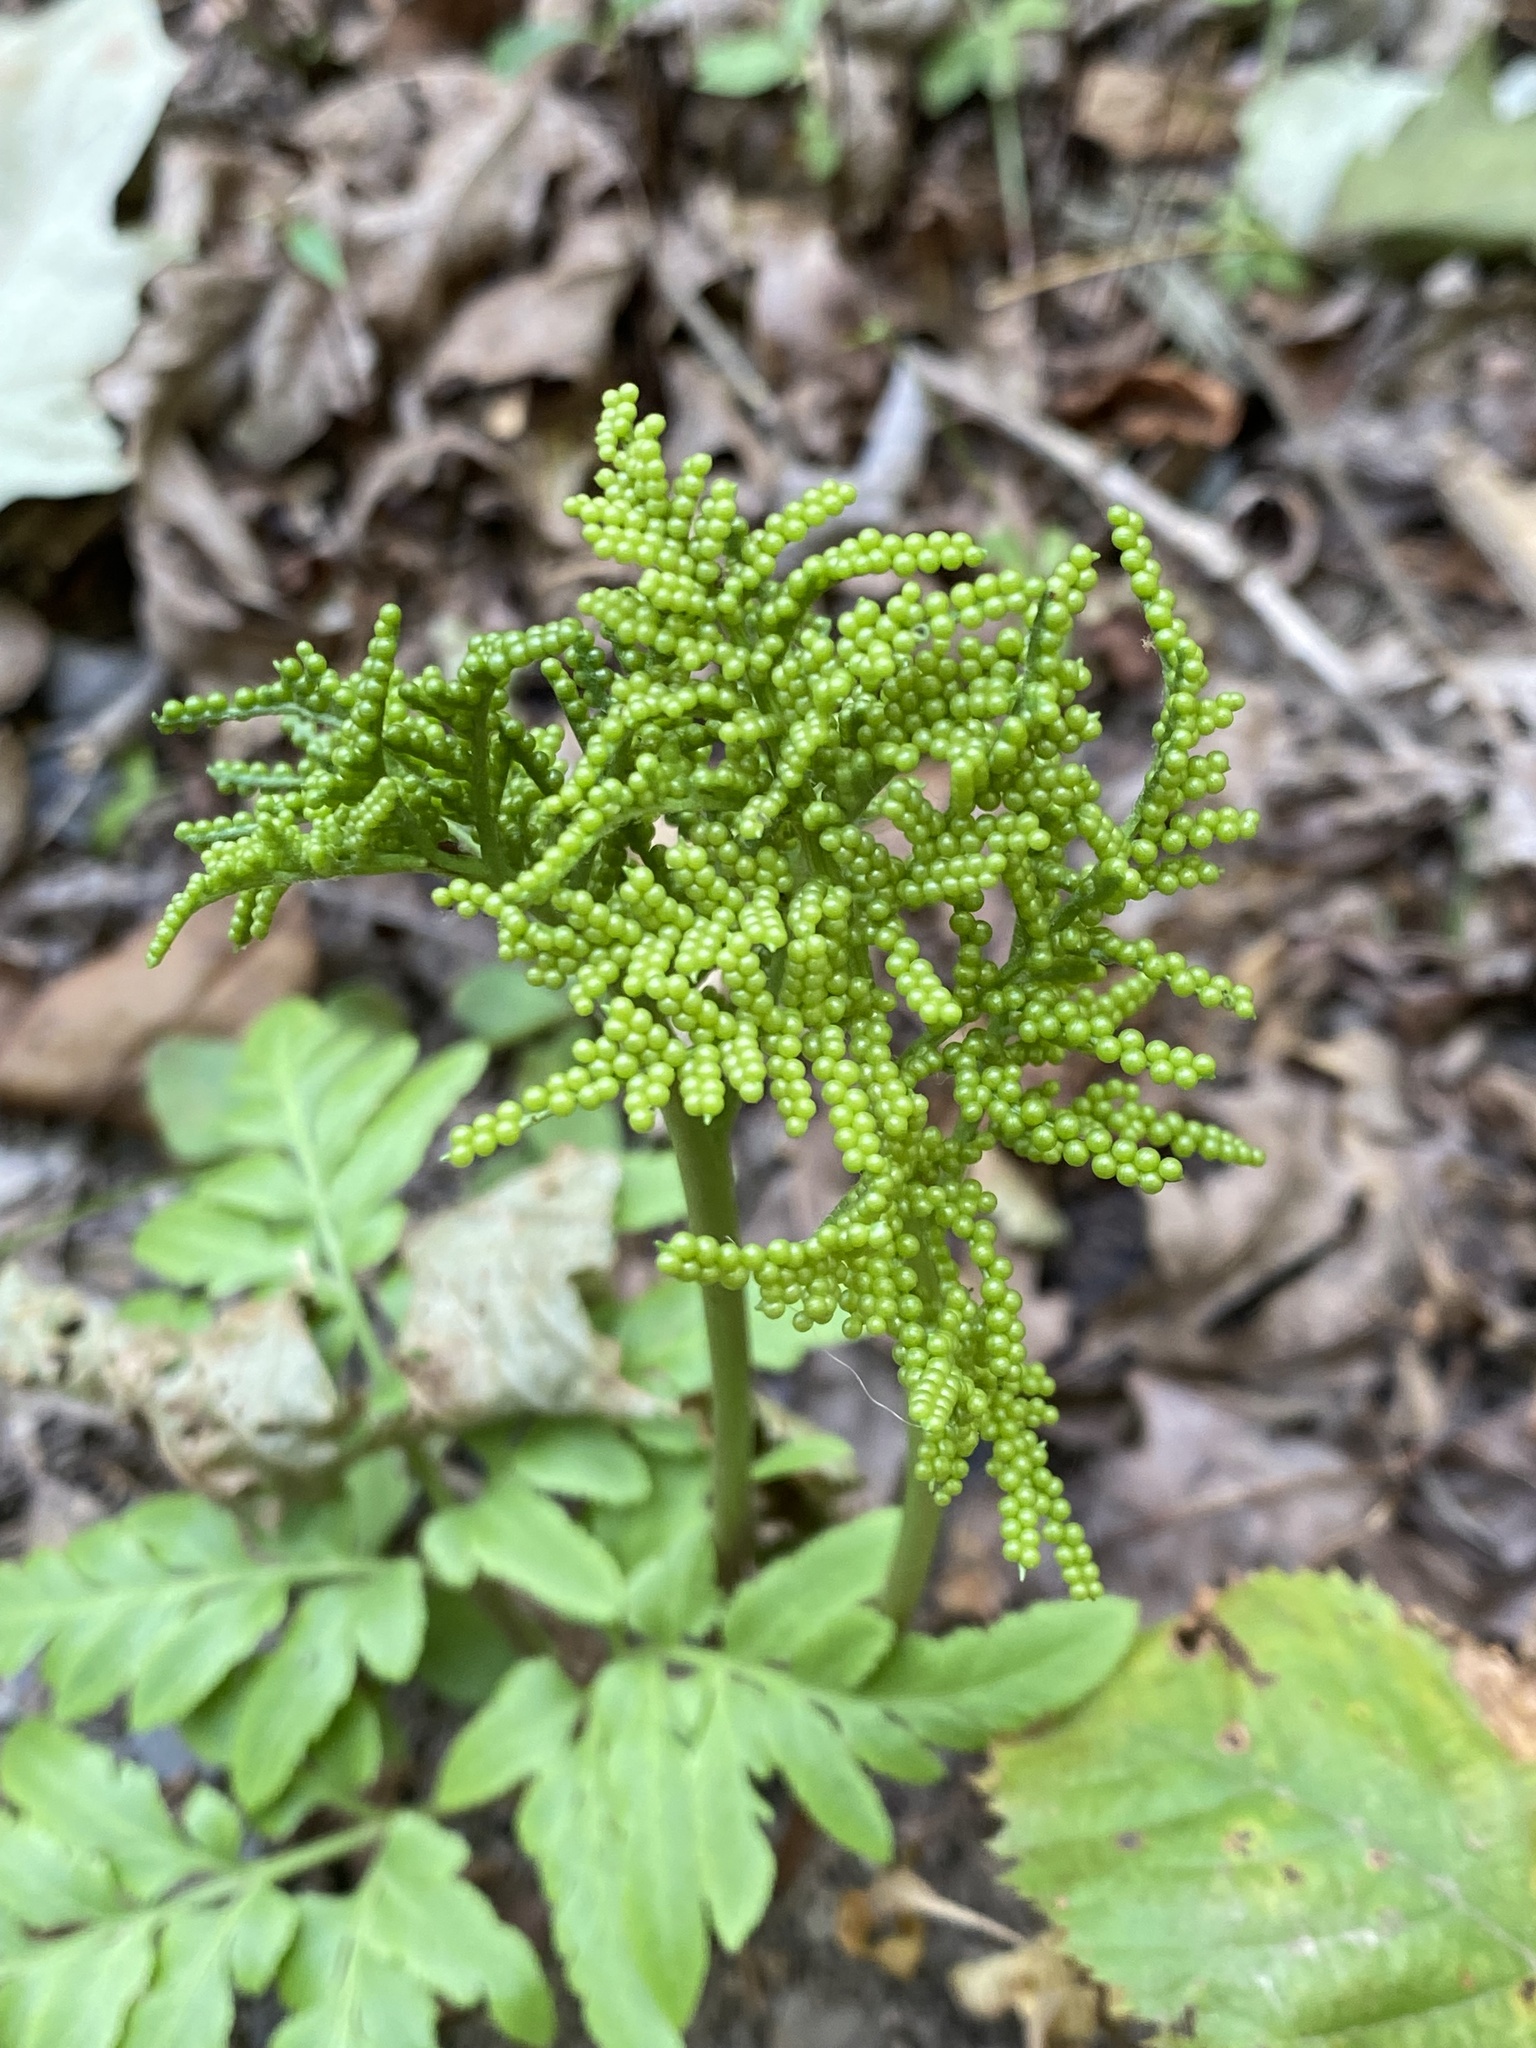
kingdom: Plantae
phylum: Tracheophyta
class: Polypodiopsida
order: Ophioglossales
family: Ophioglossaceae
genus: Sceptridium
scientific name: Sceptridium dissectum
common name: Cut-leaved grapefern
